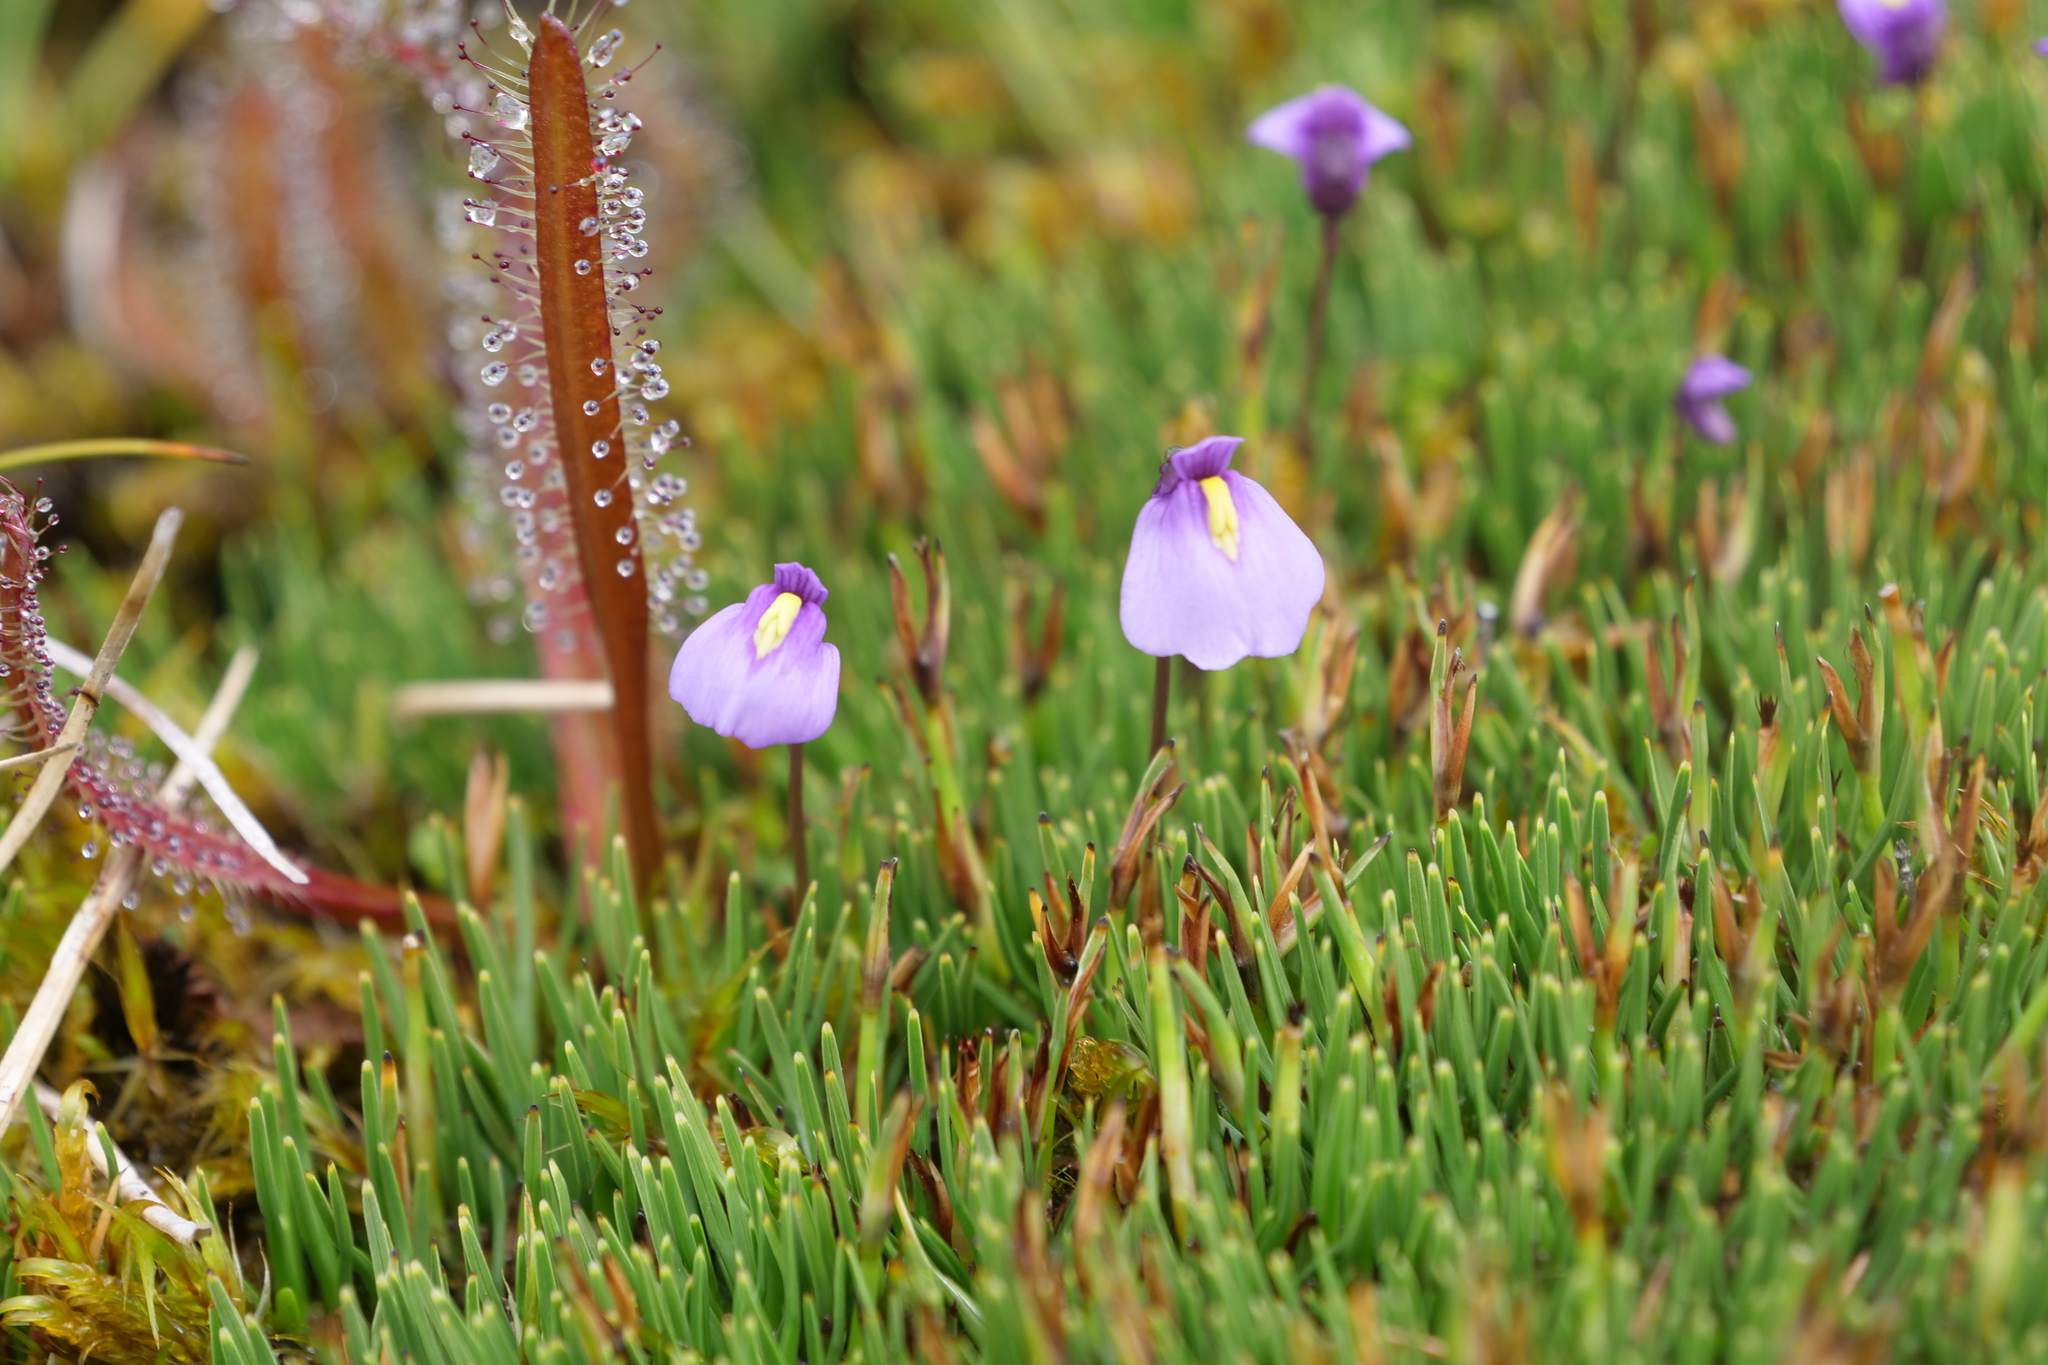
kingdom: Plantae
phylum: Tracheophyta
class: Magnoliopsida
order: Lamiales
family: Lentibulariaceae
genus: Utricularia
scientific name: Utricularia dichotoma
